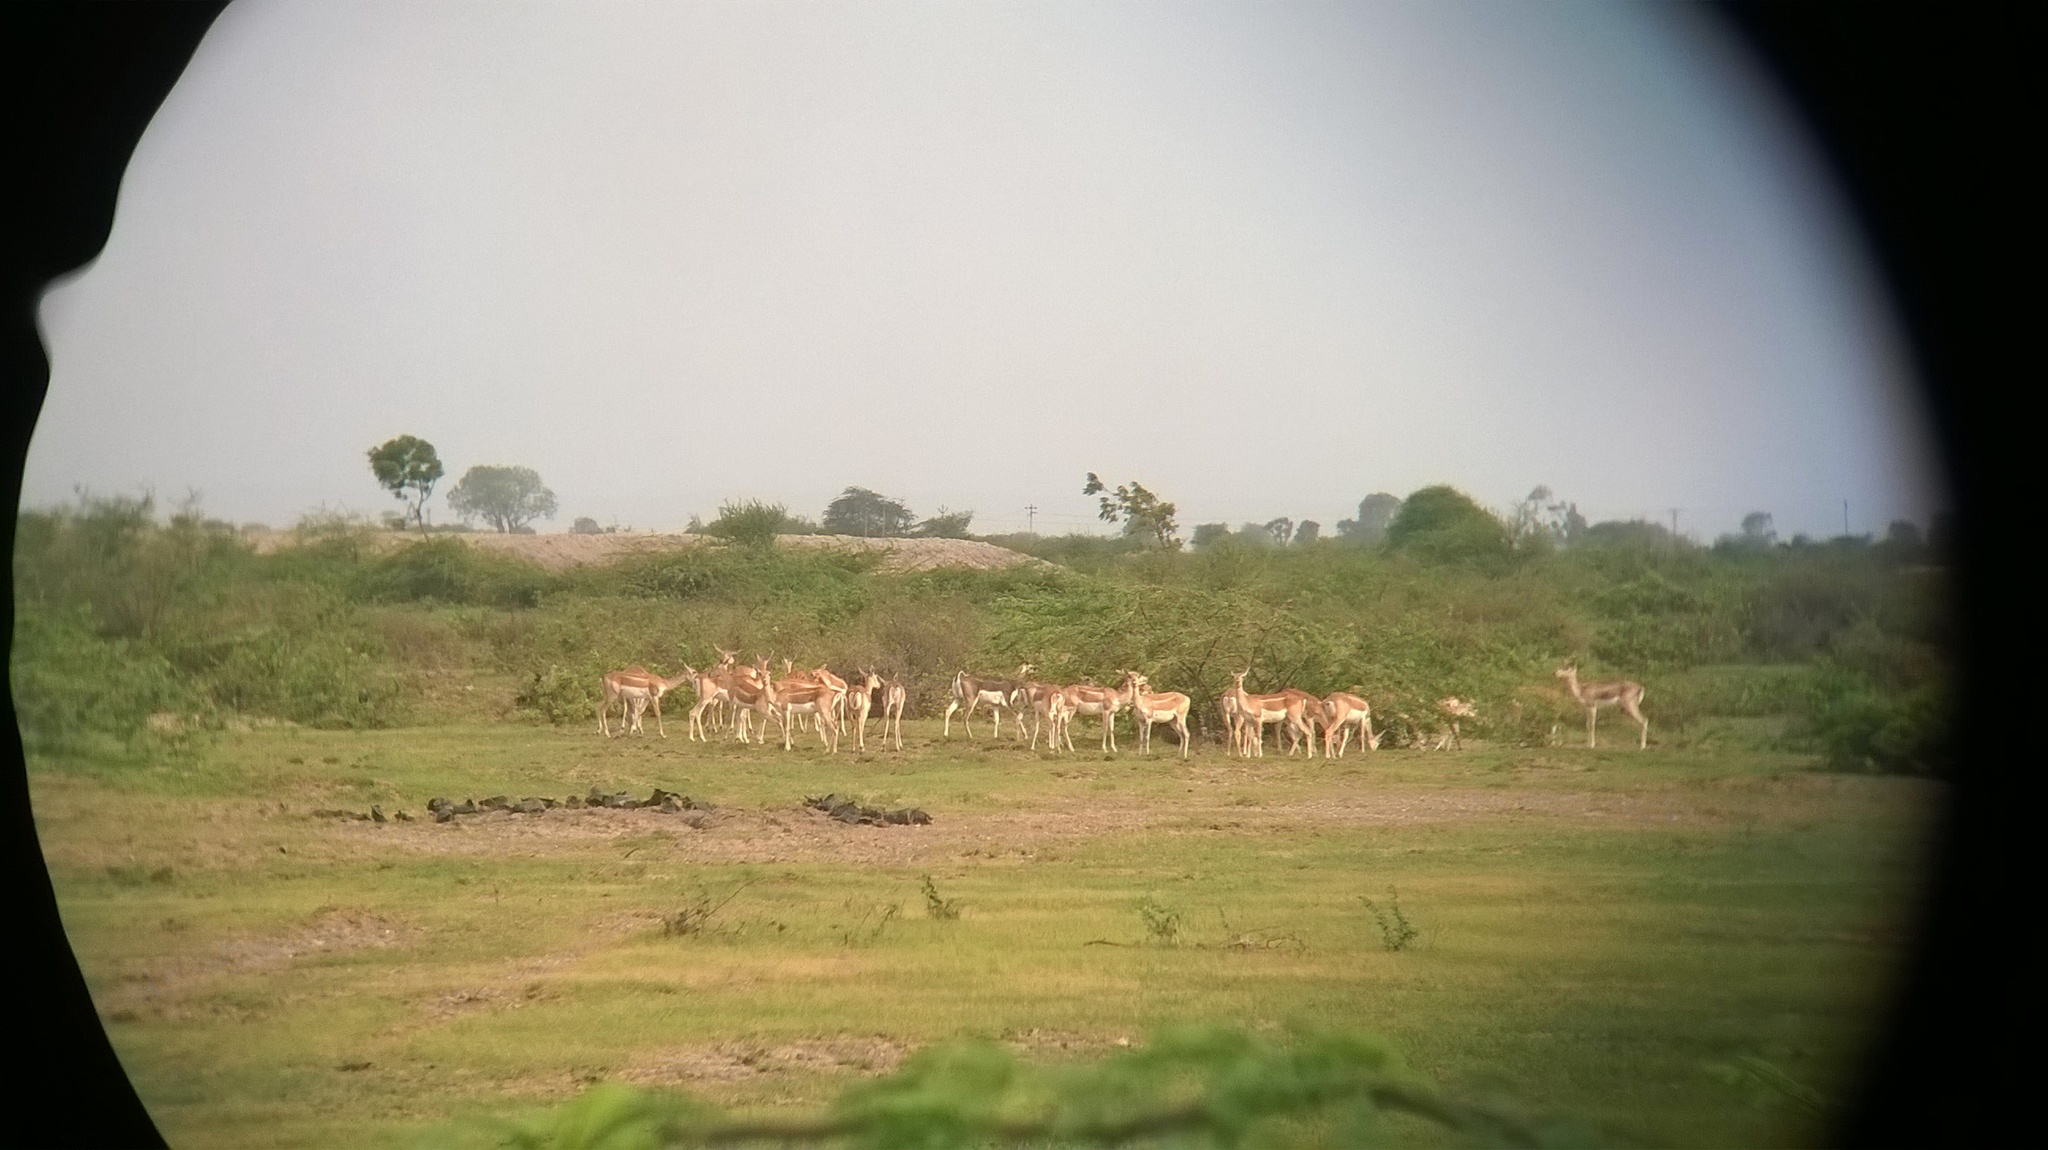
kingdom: Animalia
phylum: Chordata
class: Mammalia
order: Artiodactyla
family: Bovidae
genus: Antilope
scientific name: Antilope cervicapra
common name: Blackbuck
